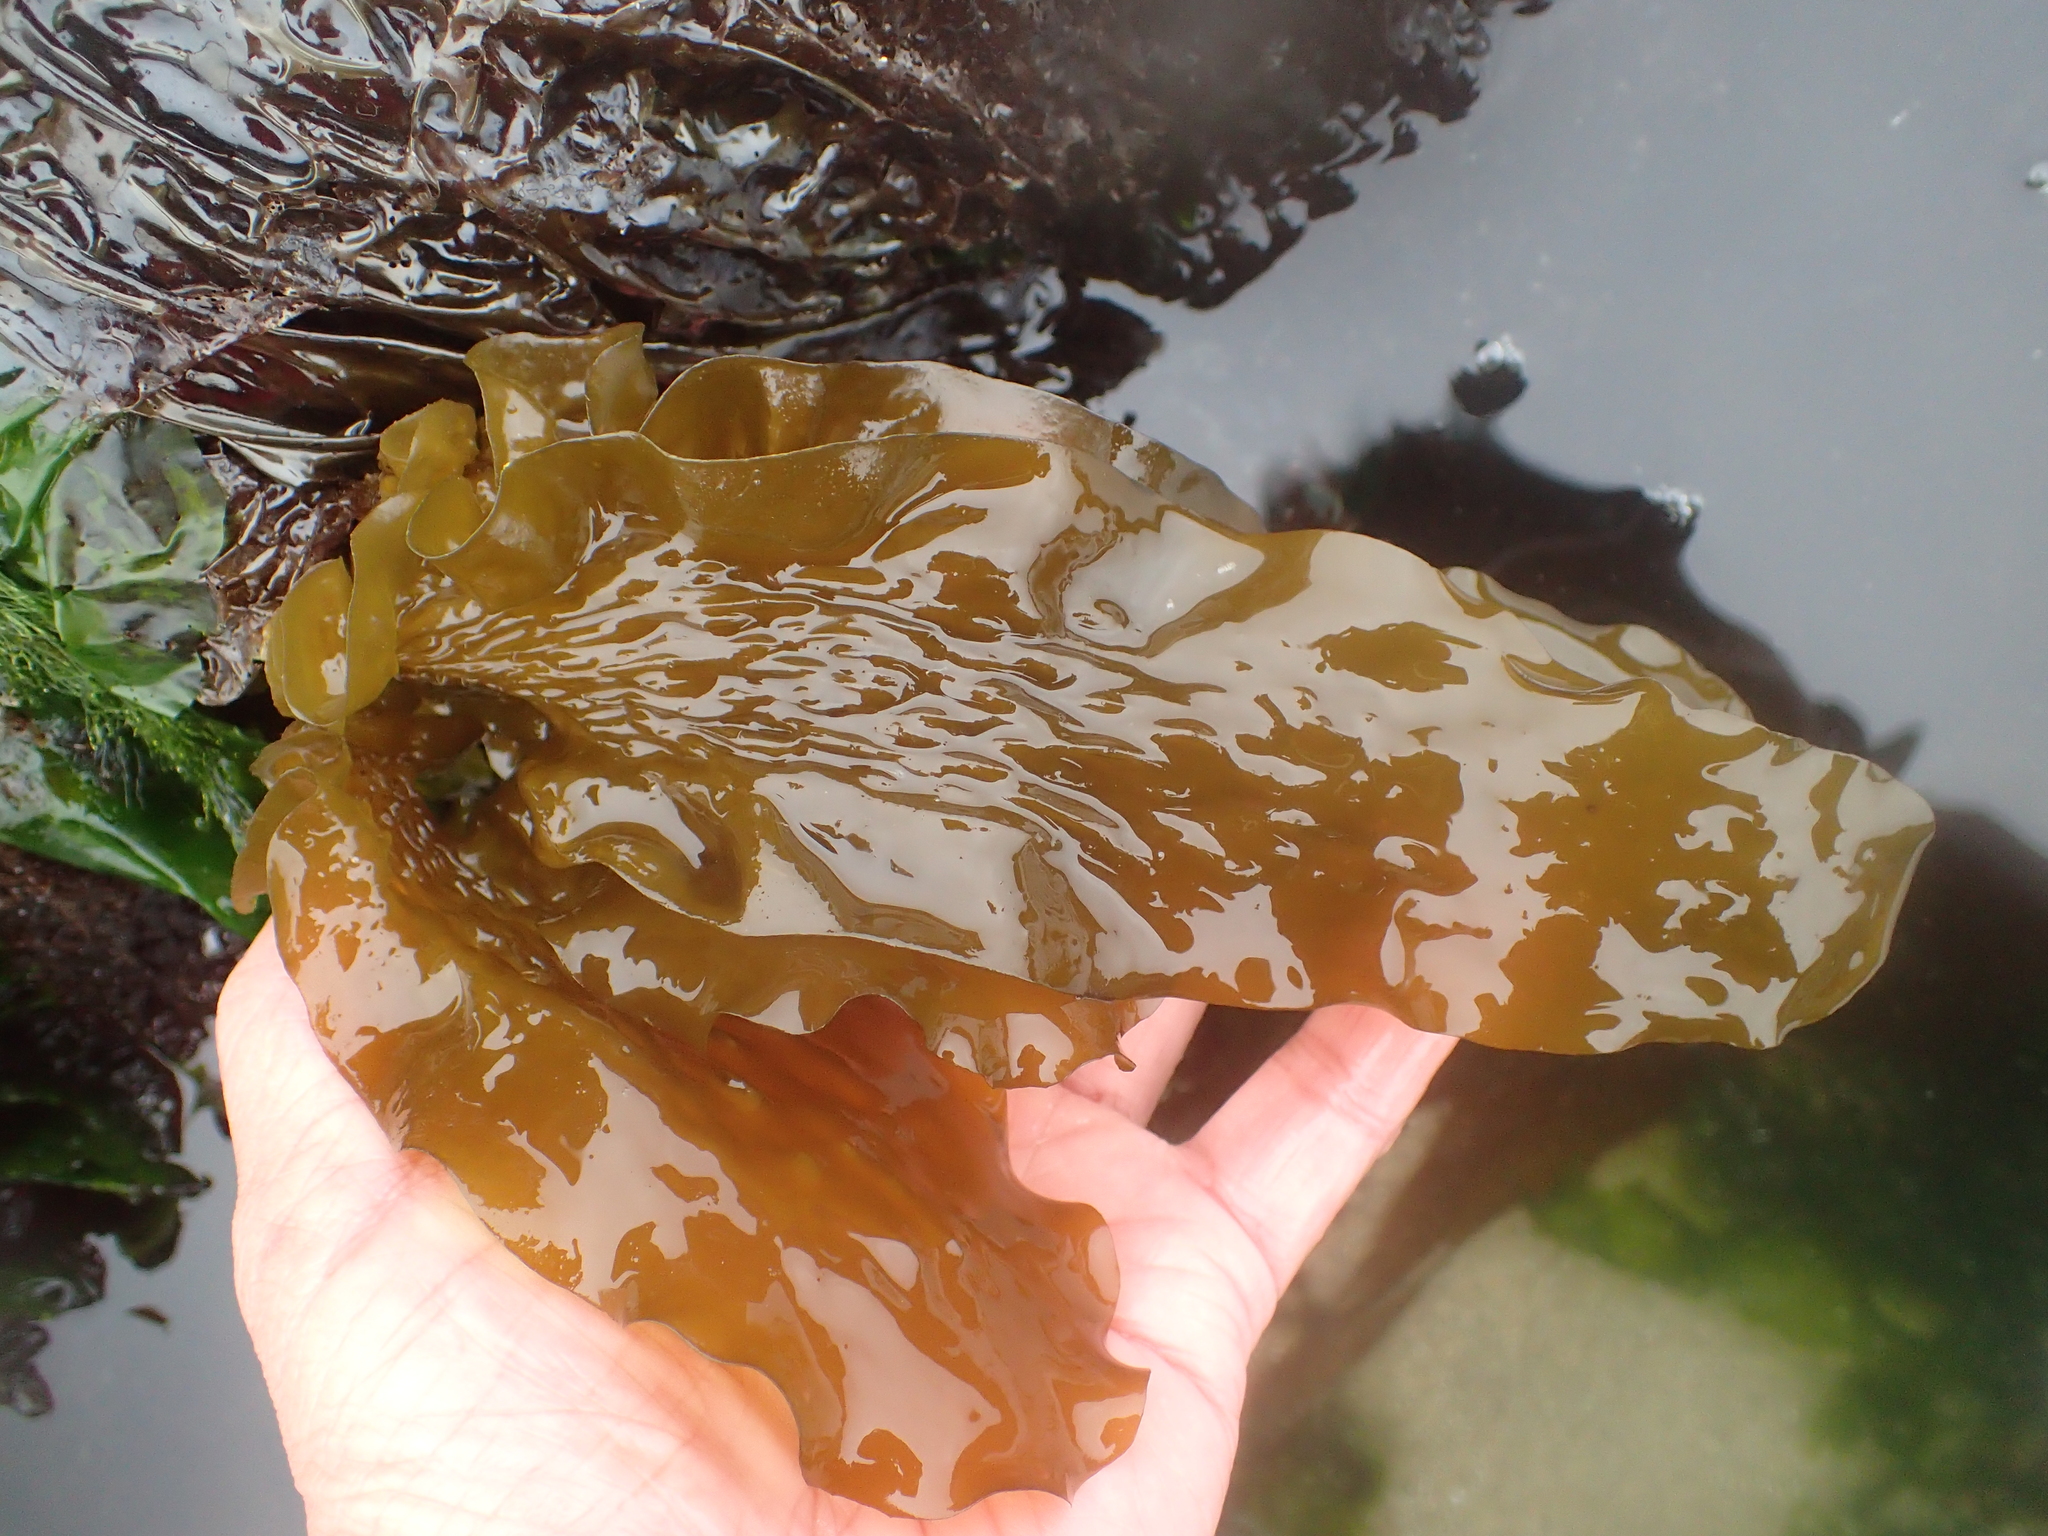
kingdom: Chromista
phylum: Ochrophyta
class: Phaeophyceae
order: Laminariales
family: Lessoniaceae
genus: Egregia
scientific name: Egregia menziesii
